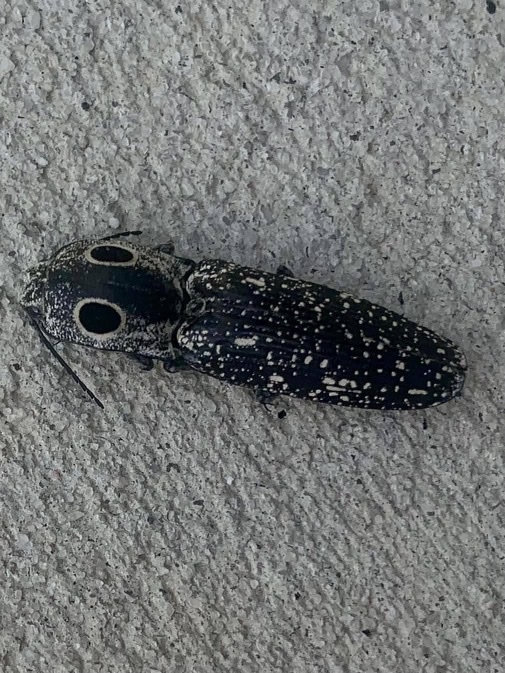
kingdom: Animalia
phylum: Arthropoda
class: Insecta
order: Coleoptera
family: Elateridae
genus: Alaus
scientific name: Alaus oculatus
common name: Eastern eyed click beetle
